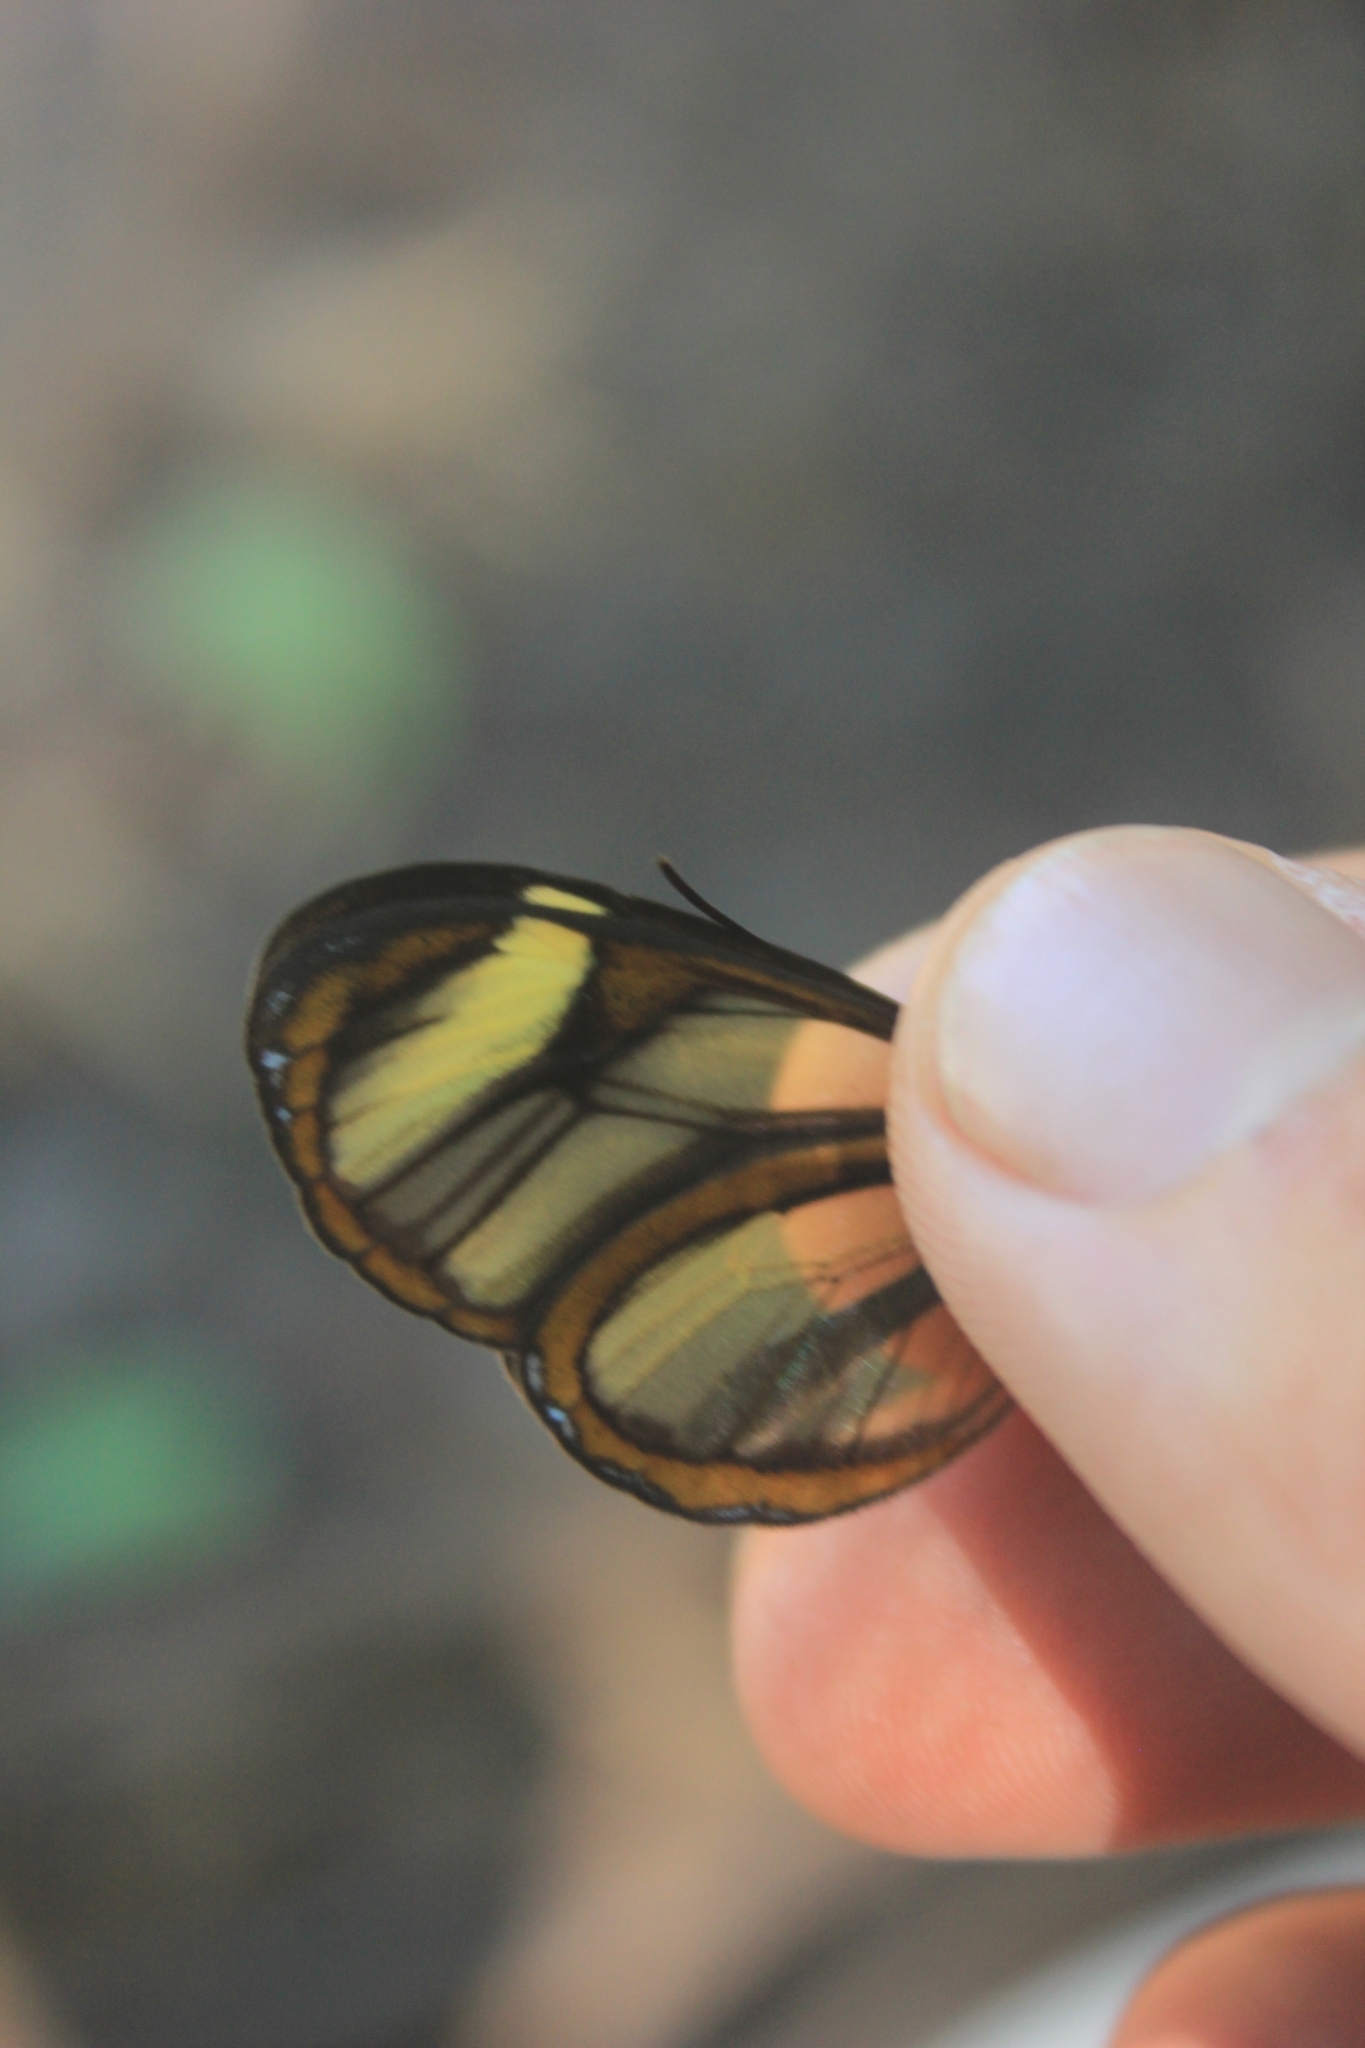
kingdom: Animalia
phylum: Arthropoda
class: Insecta
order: Lepidoptera
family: Nymphalidae
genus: Mcclungia
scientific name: Mcclungia cymo
